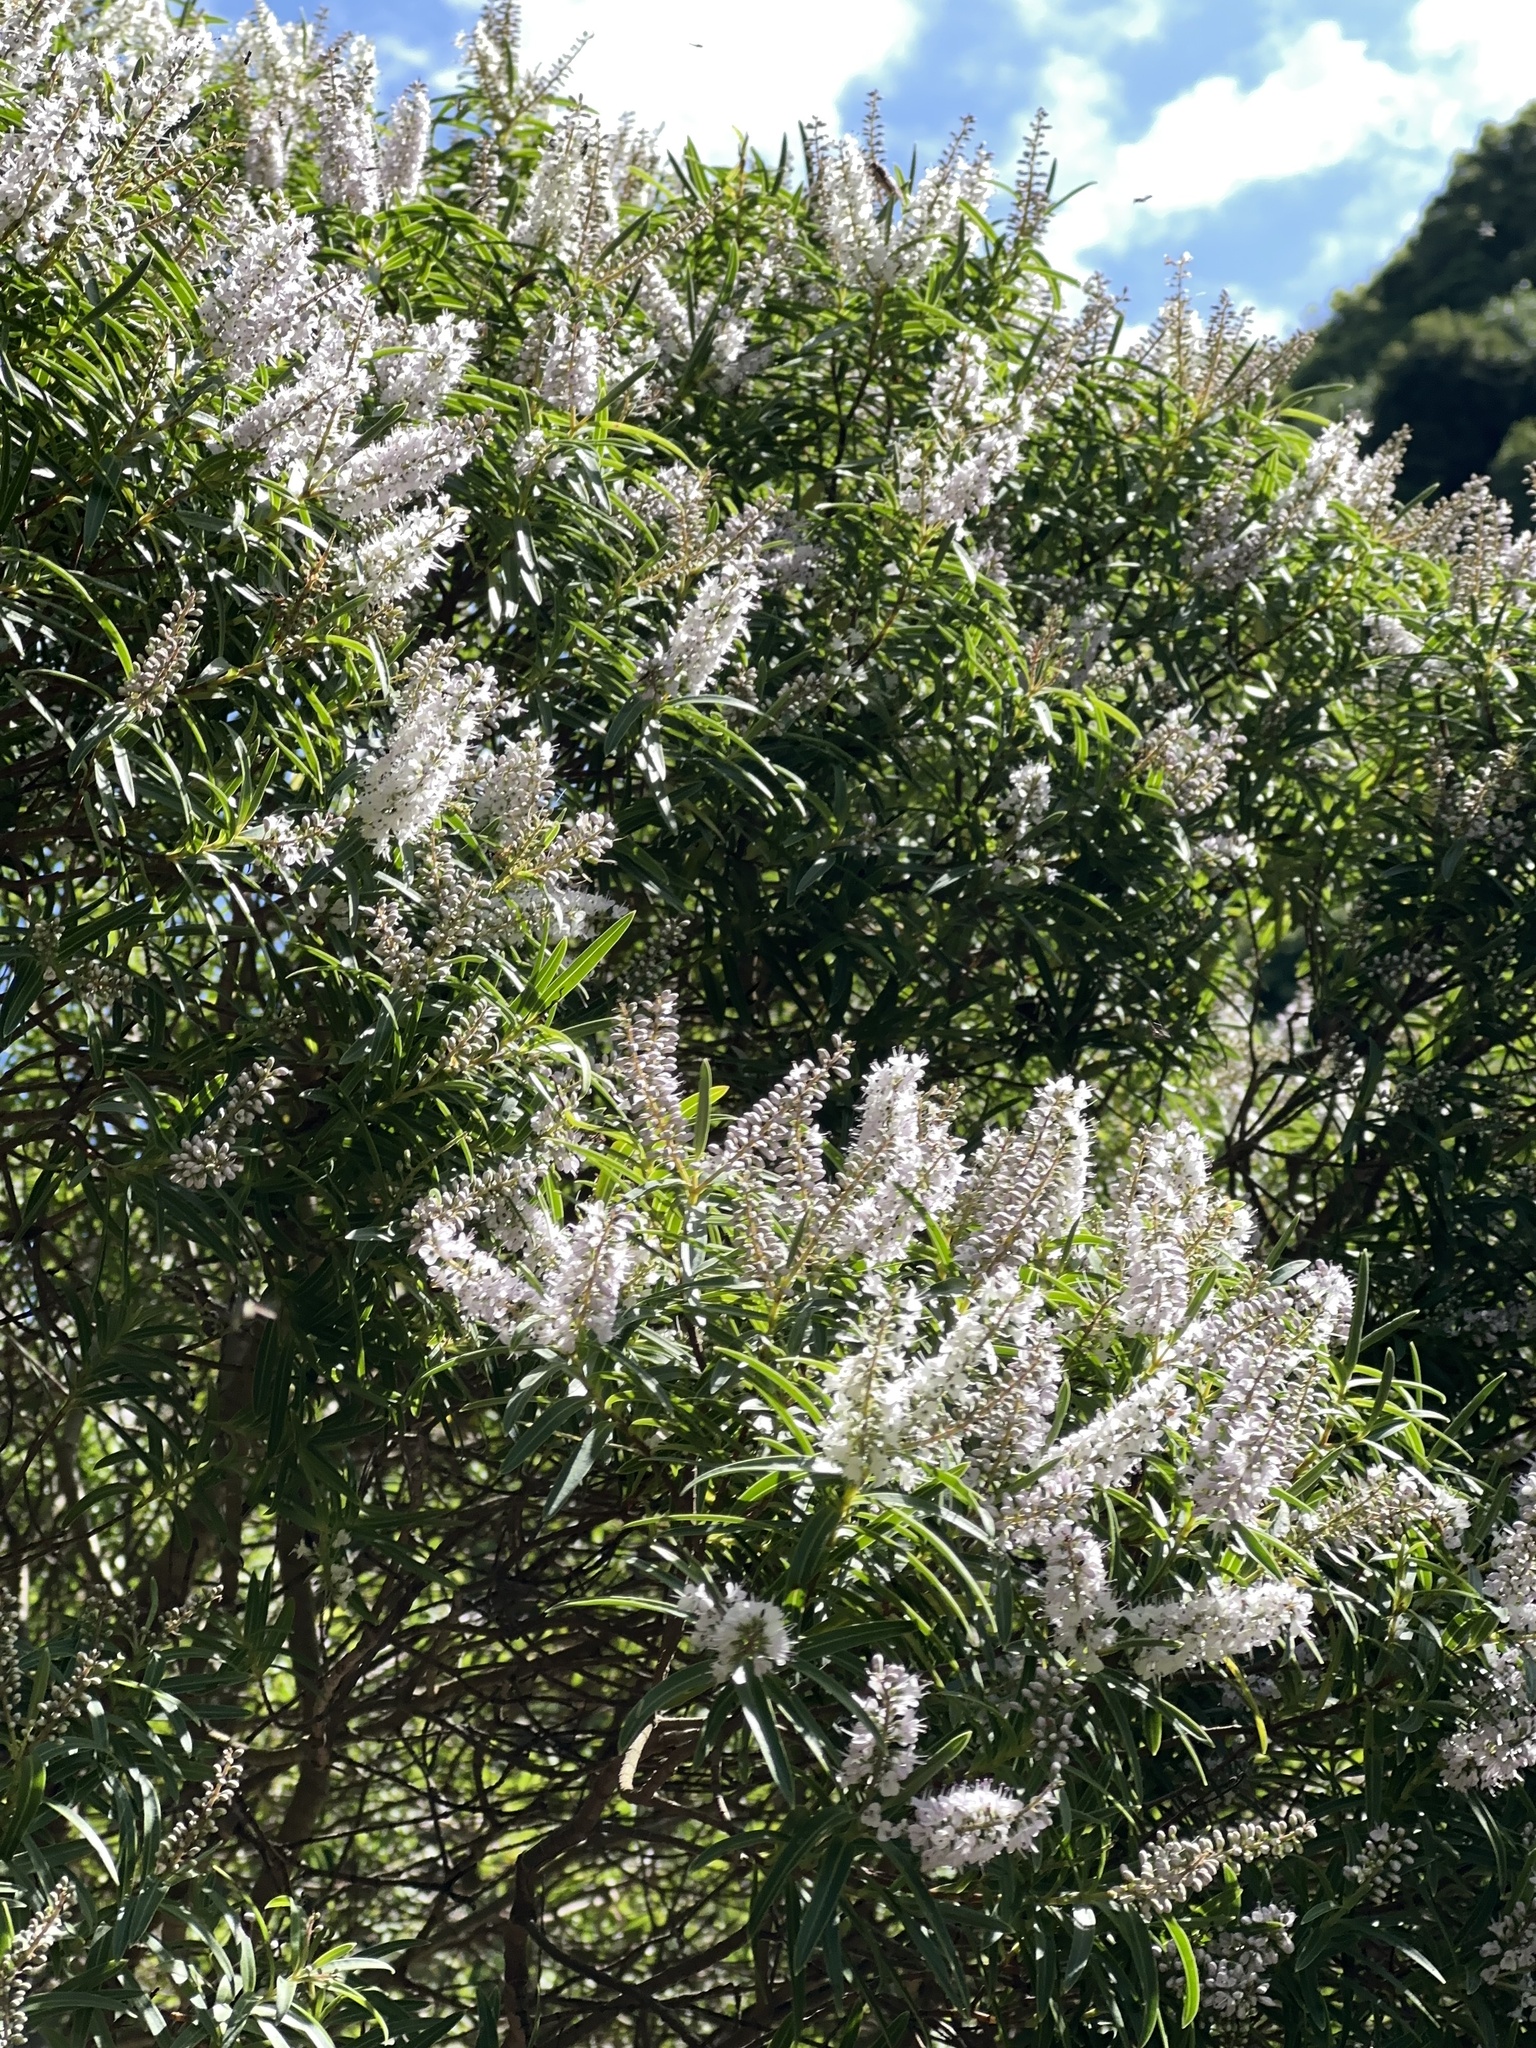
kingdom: Plantae
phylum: Tracheophyta
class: Magnoliopsida
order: Lamiales
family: Plantaginaceae
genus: Veronica
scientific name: Veronica parviflora
